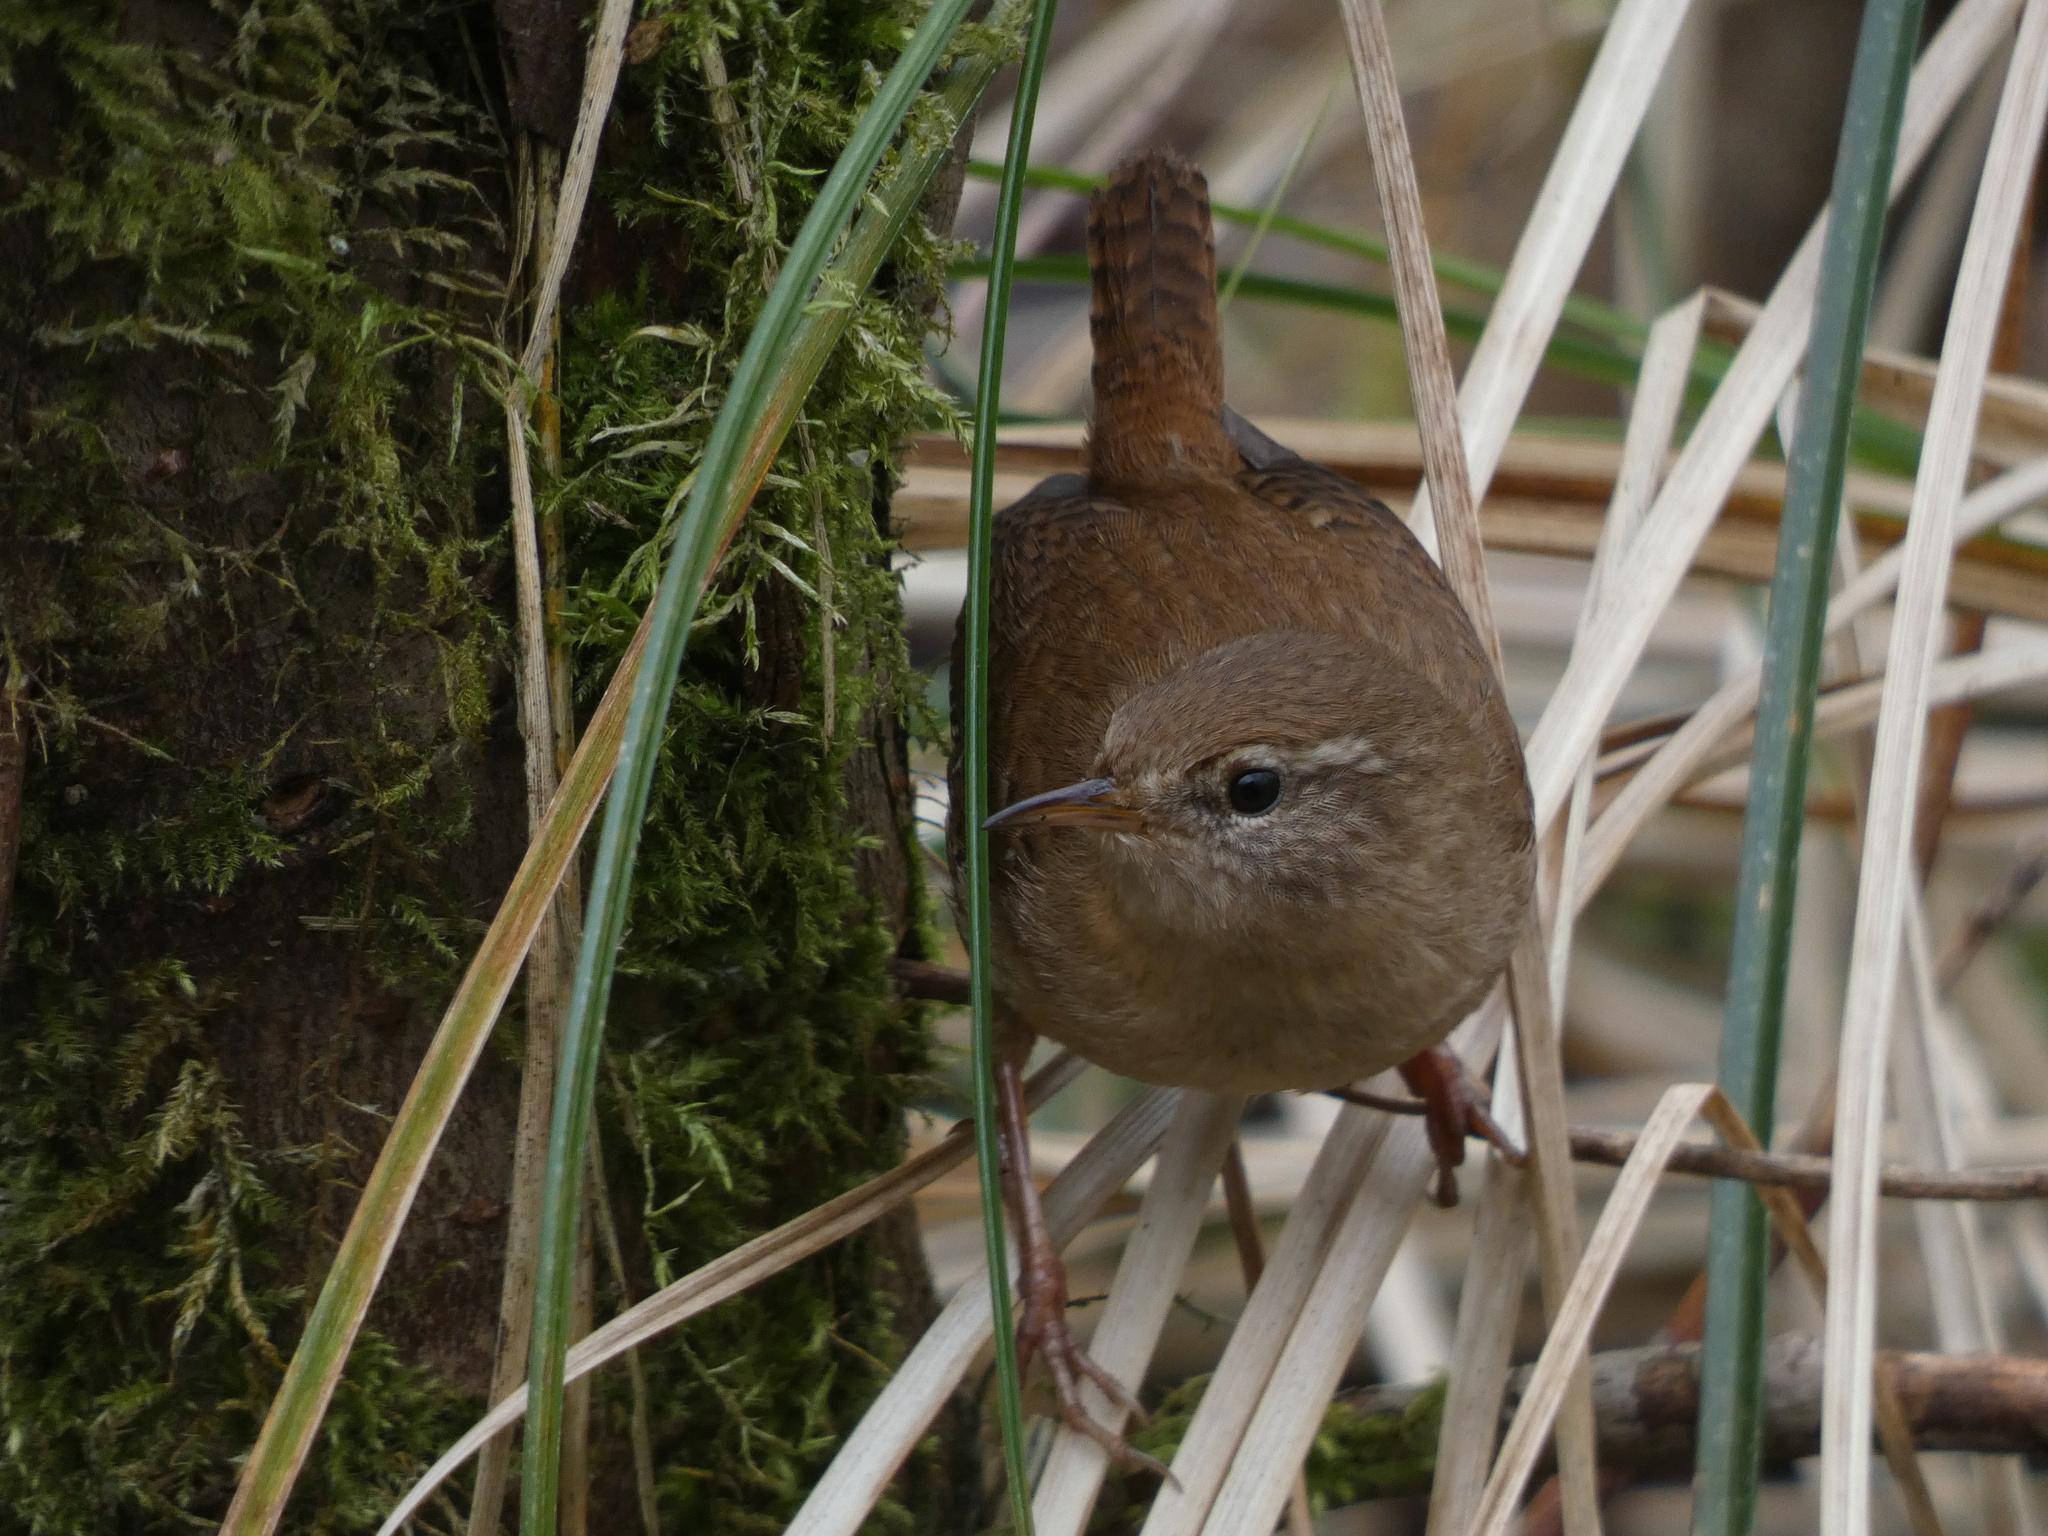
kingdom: Animalia
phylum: Chordata
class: Aves
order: Passeriformes
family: Troglodytidae
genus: Troglodytes
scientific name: Troglodytes troglodytes
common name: Eurasian wren
